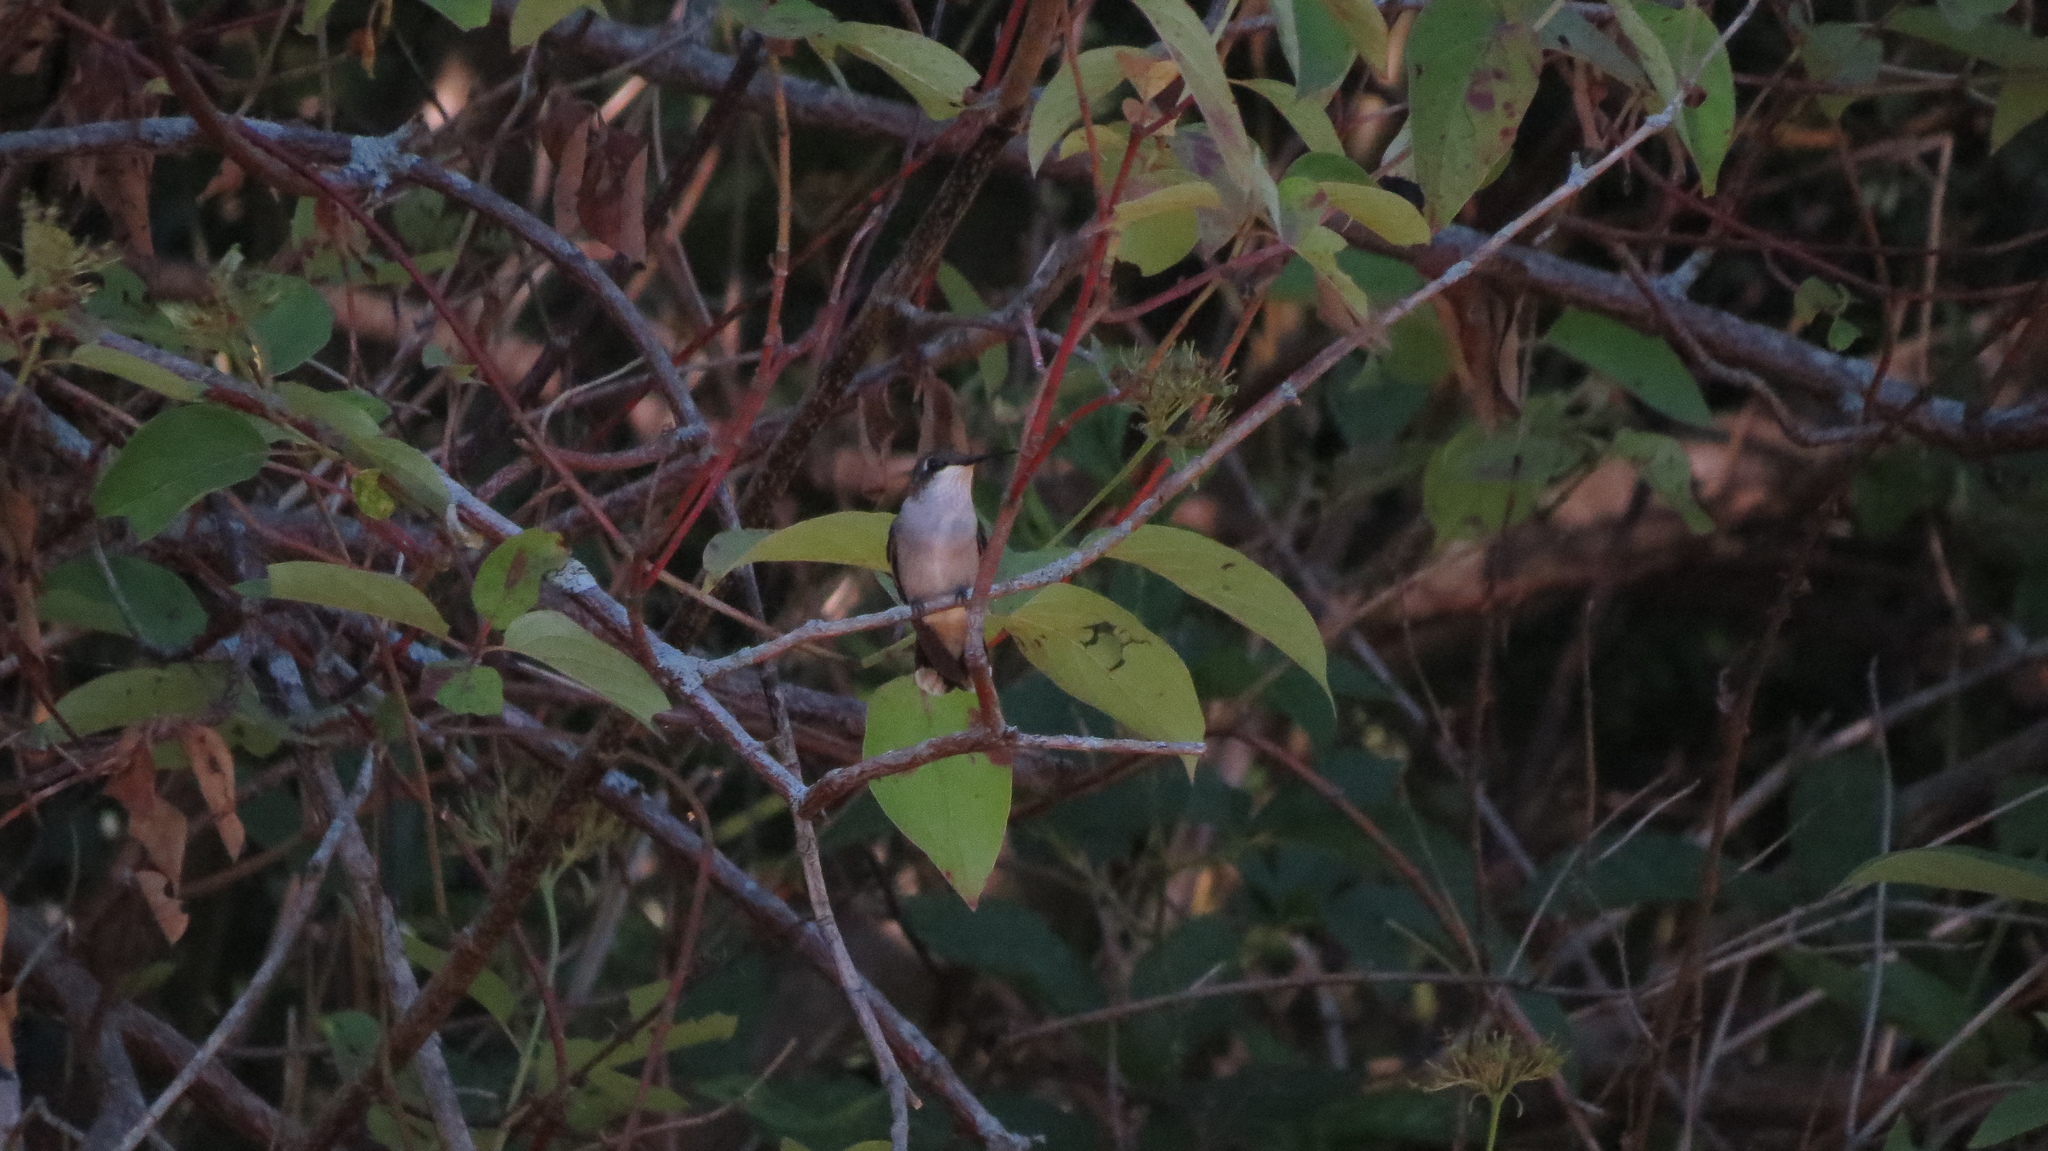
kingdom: Animalia
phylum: Chordata
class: Aves
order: Apodiformes
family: Trochilidae
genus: Archilochus
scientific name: Archilochus colubris
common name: Ruby-throated hummingbird
